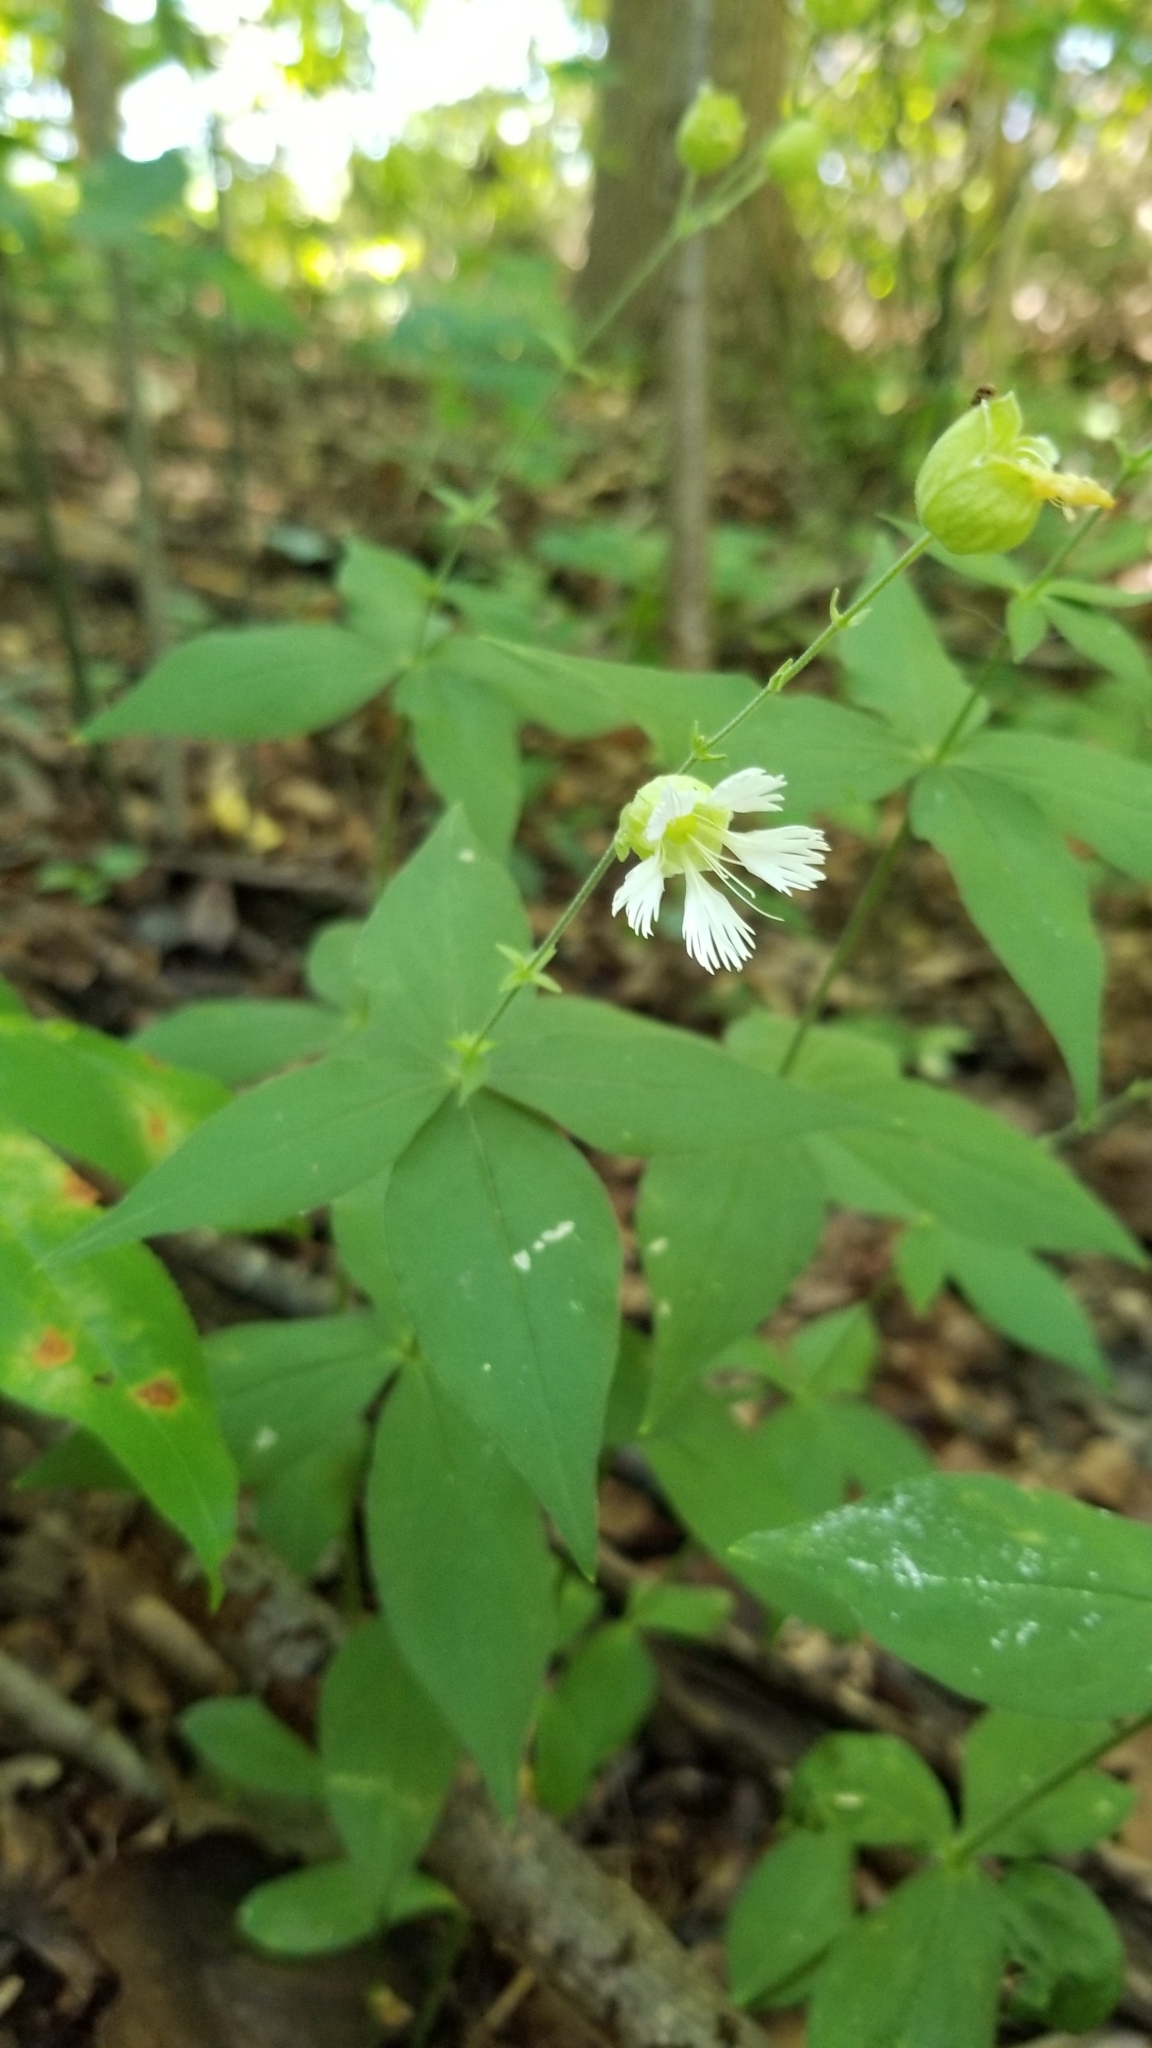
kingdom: Plantae
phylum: Tracheophyta
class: Magnoliopsida
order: Caryophyllales
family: Caryophyllaceae
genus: Silene
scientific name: Silene stellata
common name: Starry campion
